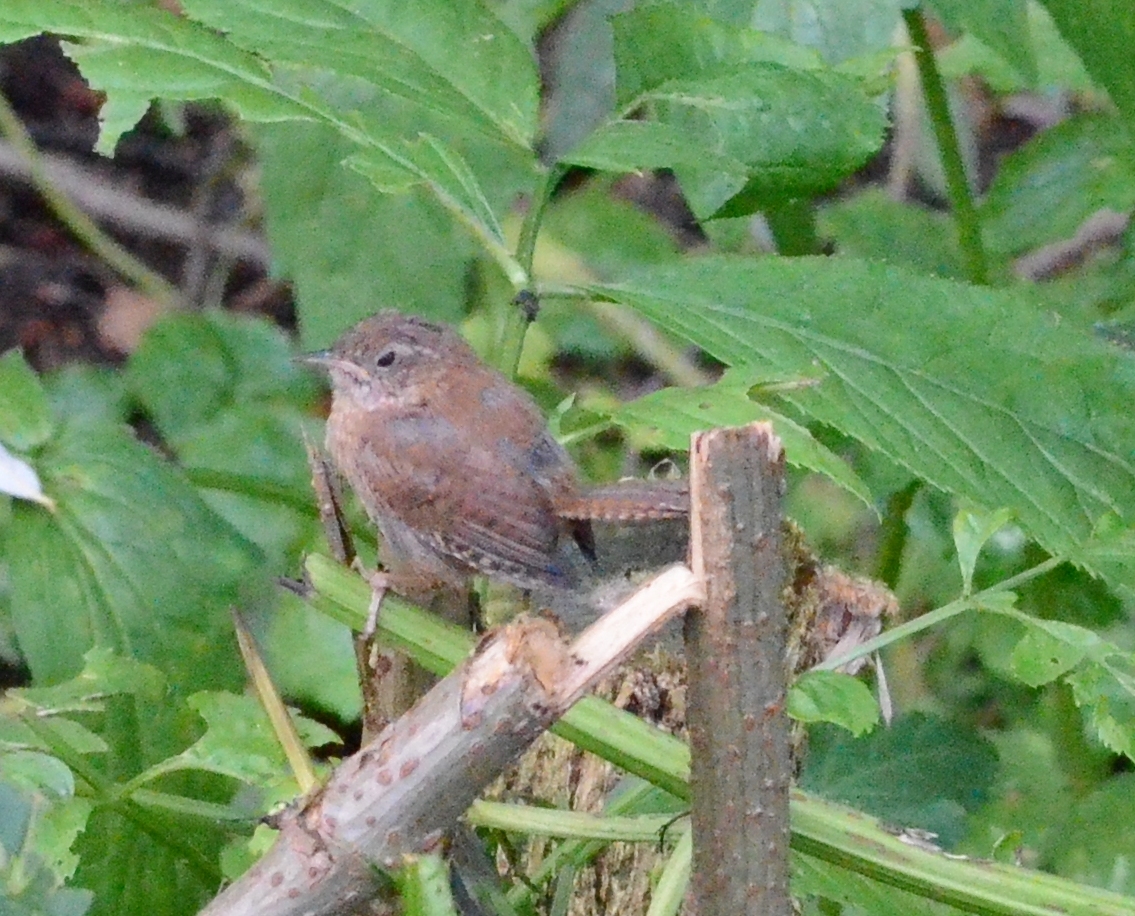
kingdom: Animalia
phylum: Chordata
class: Aves
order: Passeriformes
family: Troglodytidae
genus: Troglodytes
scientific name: Troglodytes troglodytes
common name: Eurasian wren
